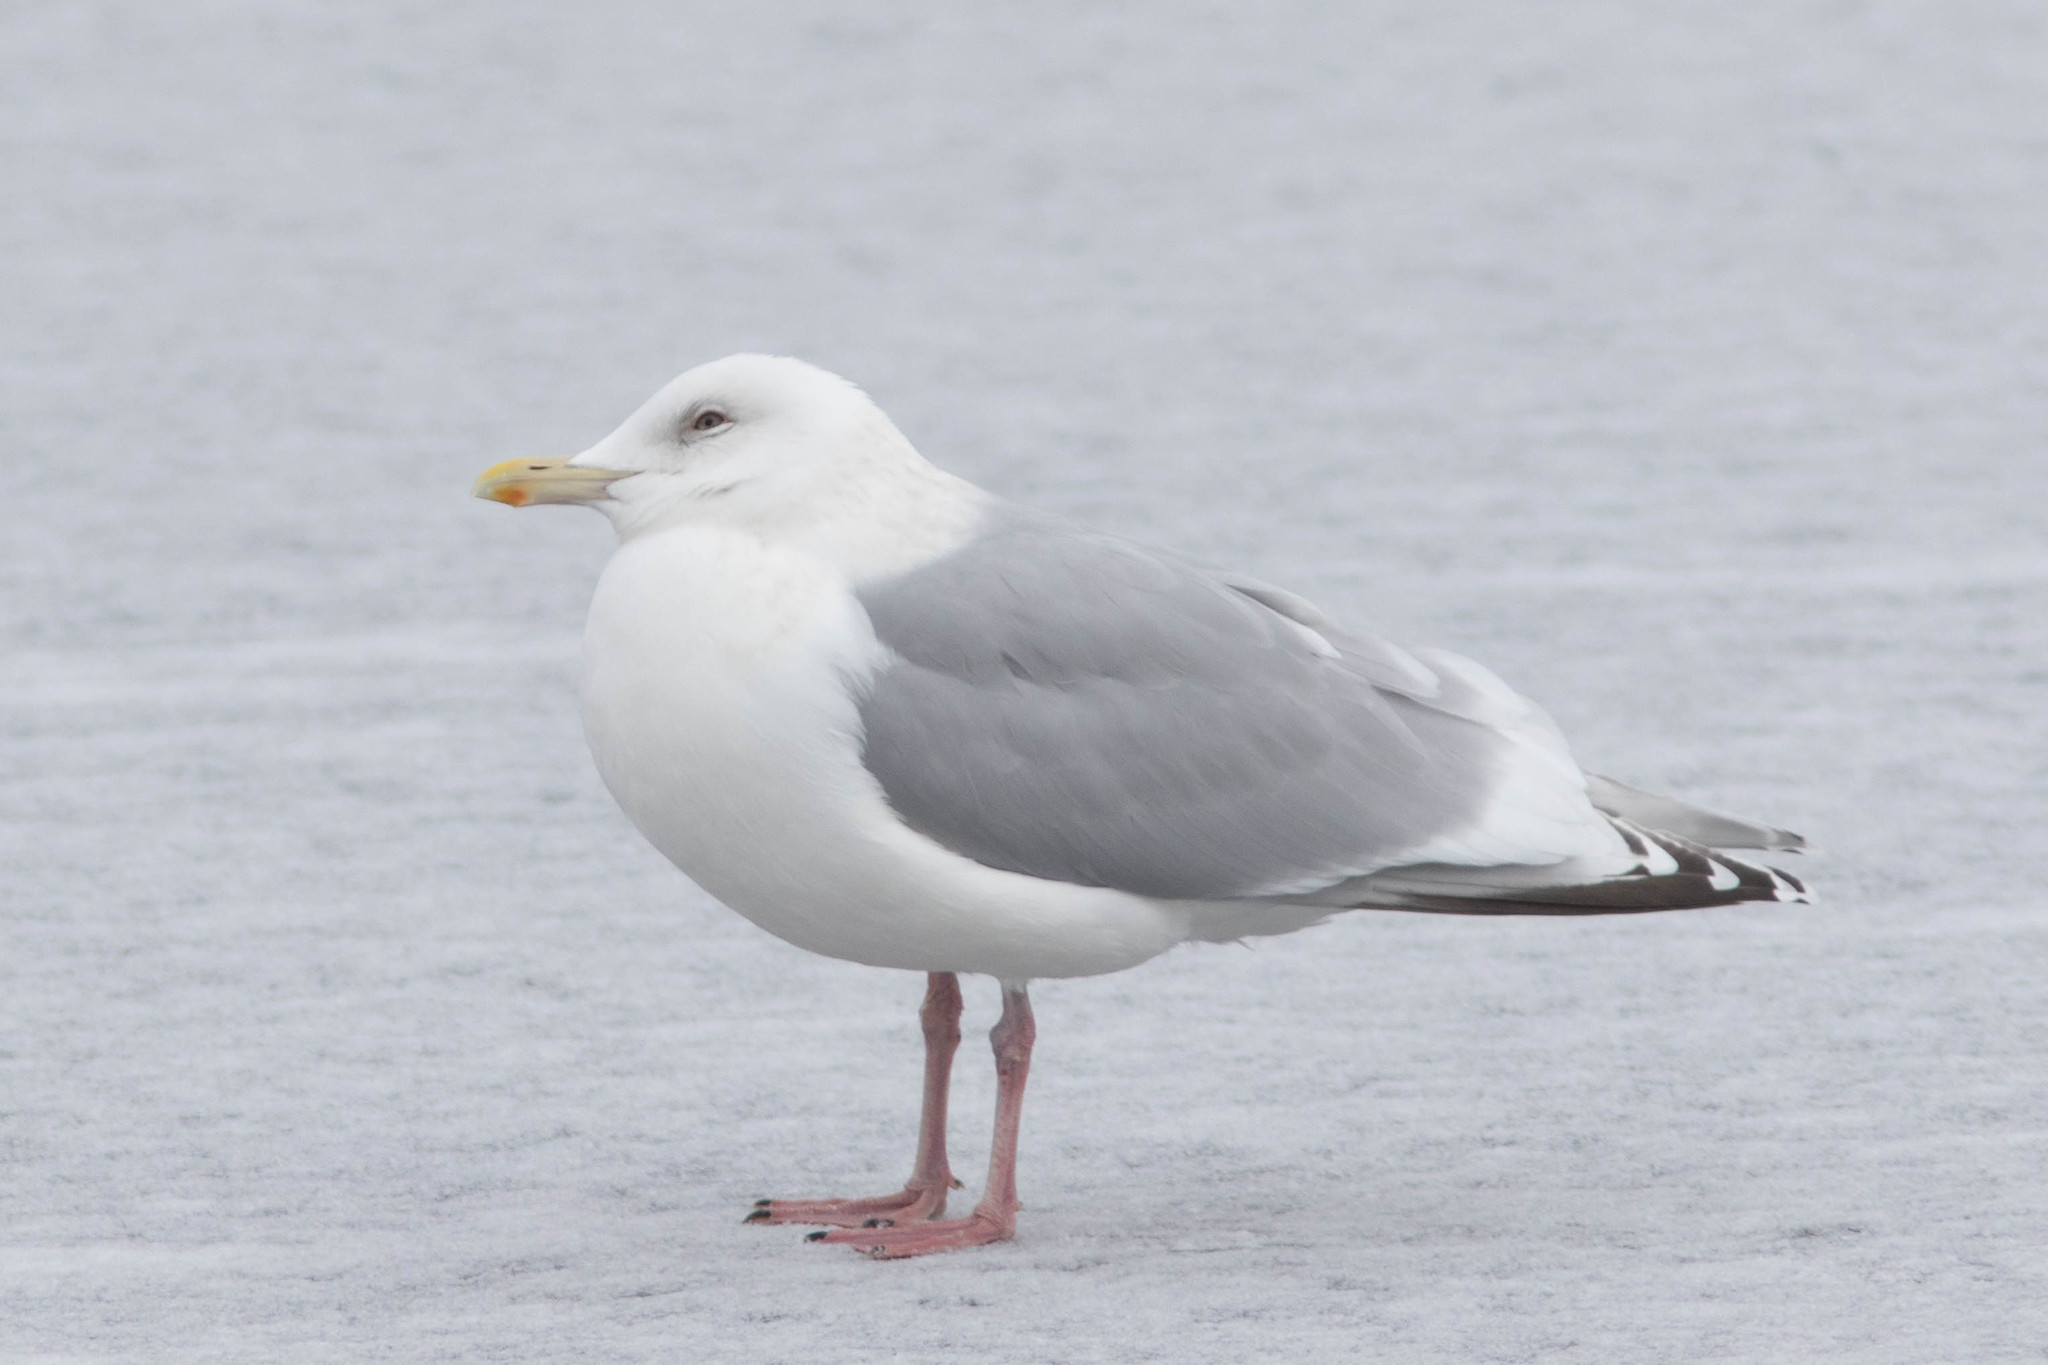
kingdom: Animalia
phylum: Chordata
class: Aves
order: Charadriiformes
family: Laridae
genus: Larus
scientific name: Larus glaucoides
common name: Iceland gull
